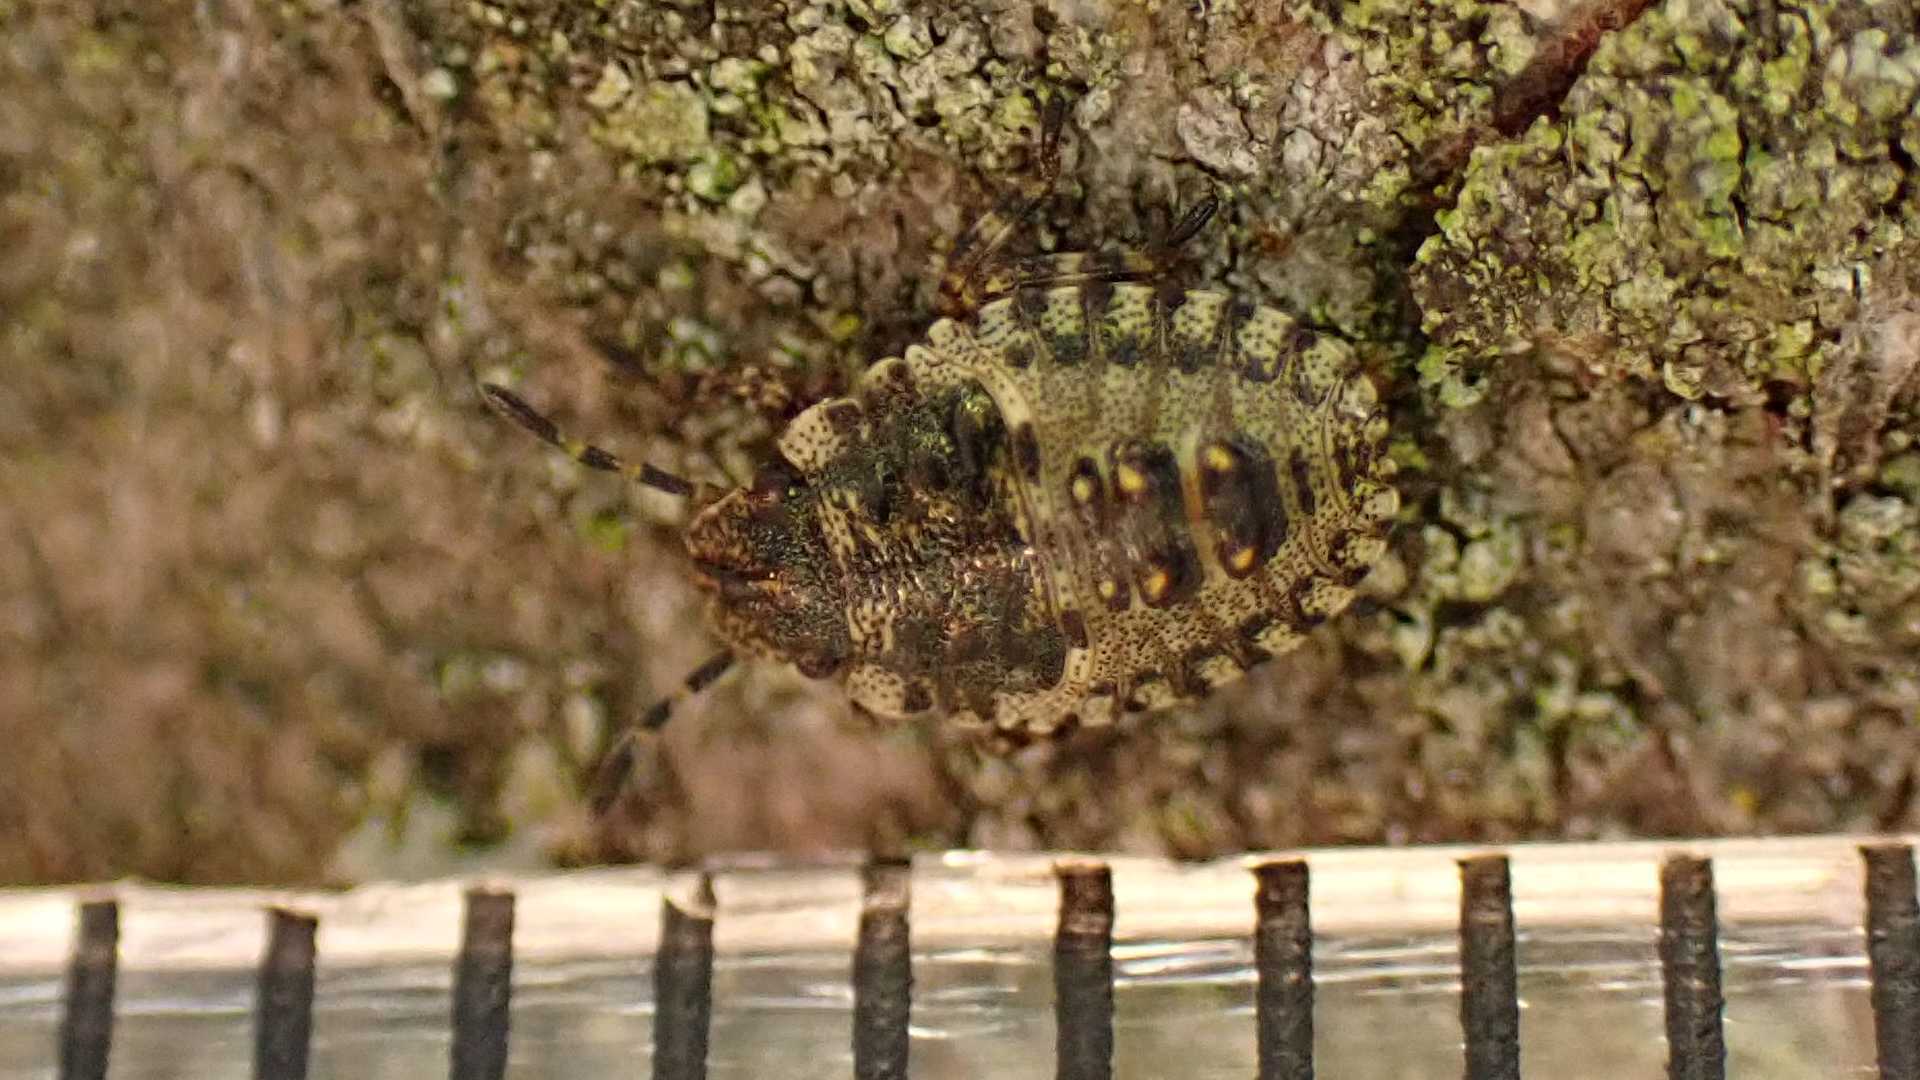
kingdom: Animalia
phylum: Arthropoda
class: Insecta
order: Hemiptera
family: Pentatomidae
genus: Pentatoma
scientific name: Pentatoma rufipes
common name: Forest bug
